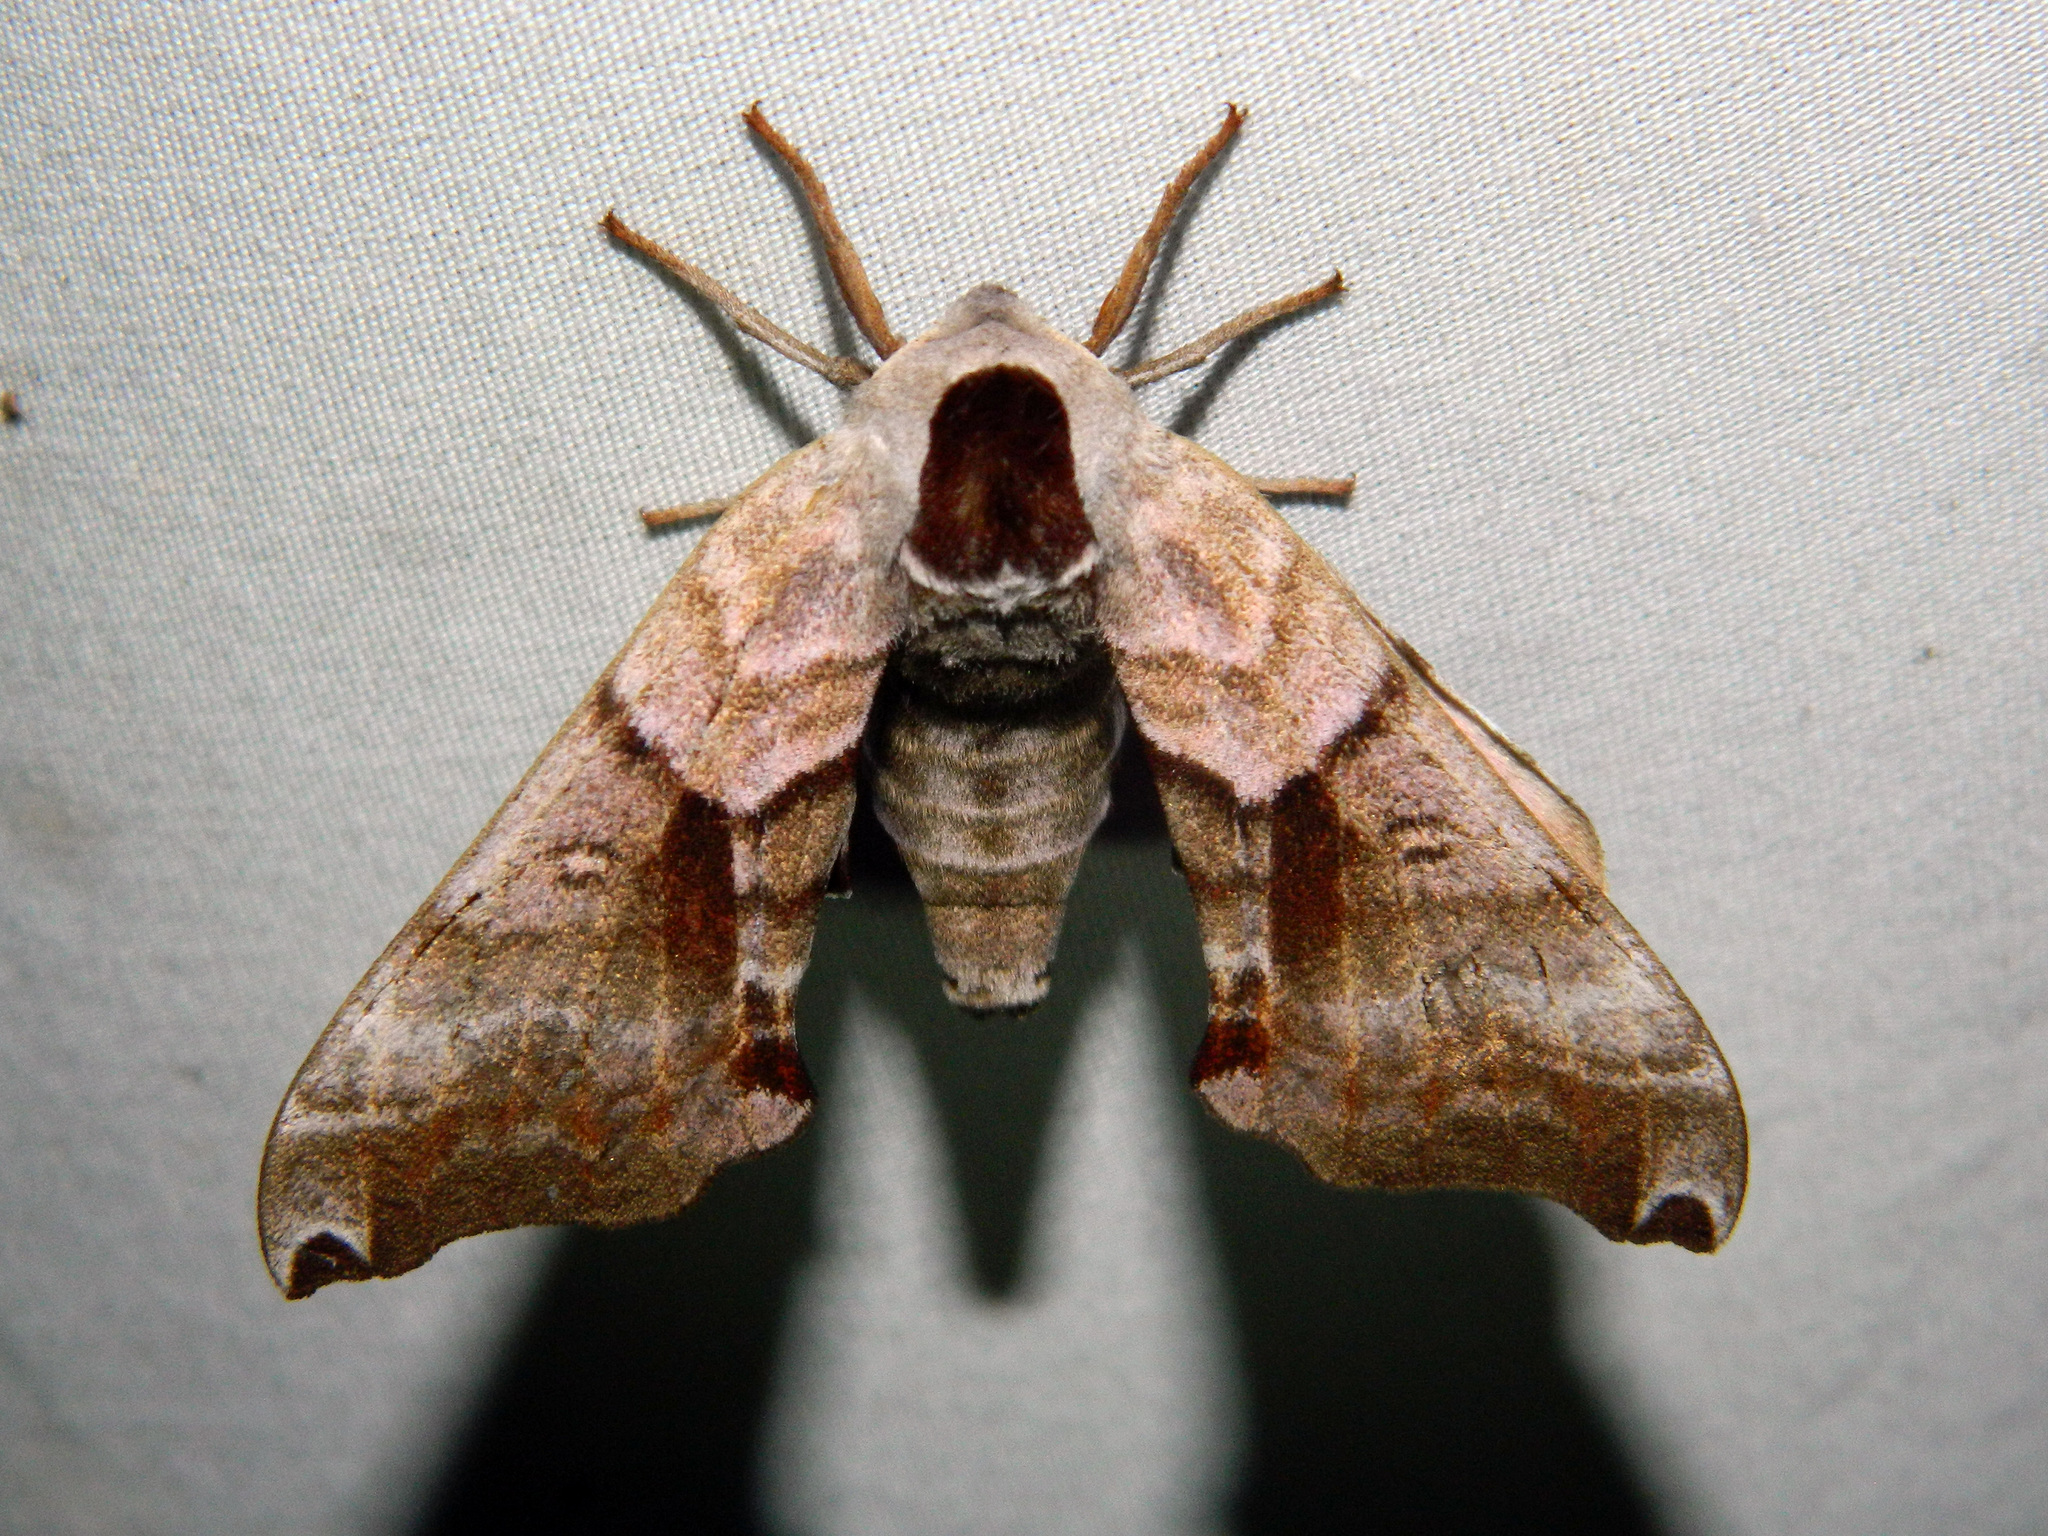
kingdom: Animalia
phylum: Arthropoda
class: Insecta
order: Lepidoptera
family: Sphingidae
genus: Smerinthus
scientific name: Smerinthus jamaicensis
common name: Twin spotted sphinx
